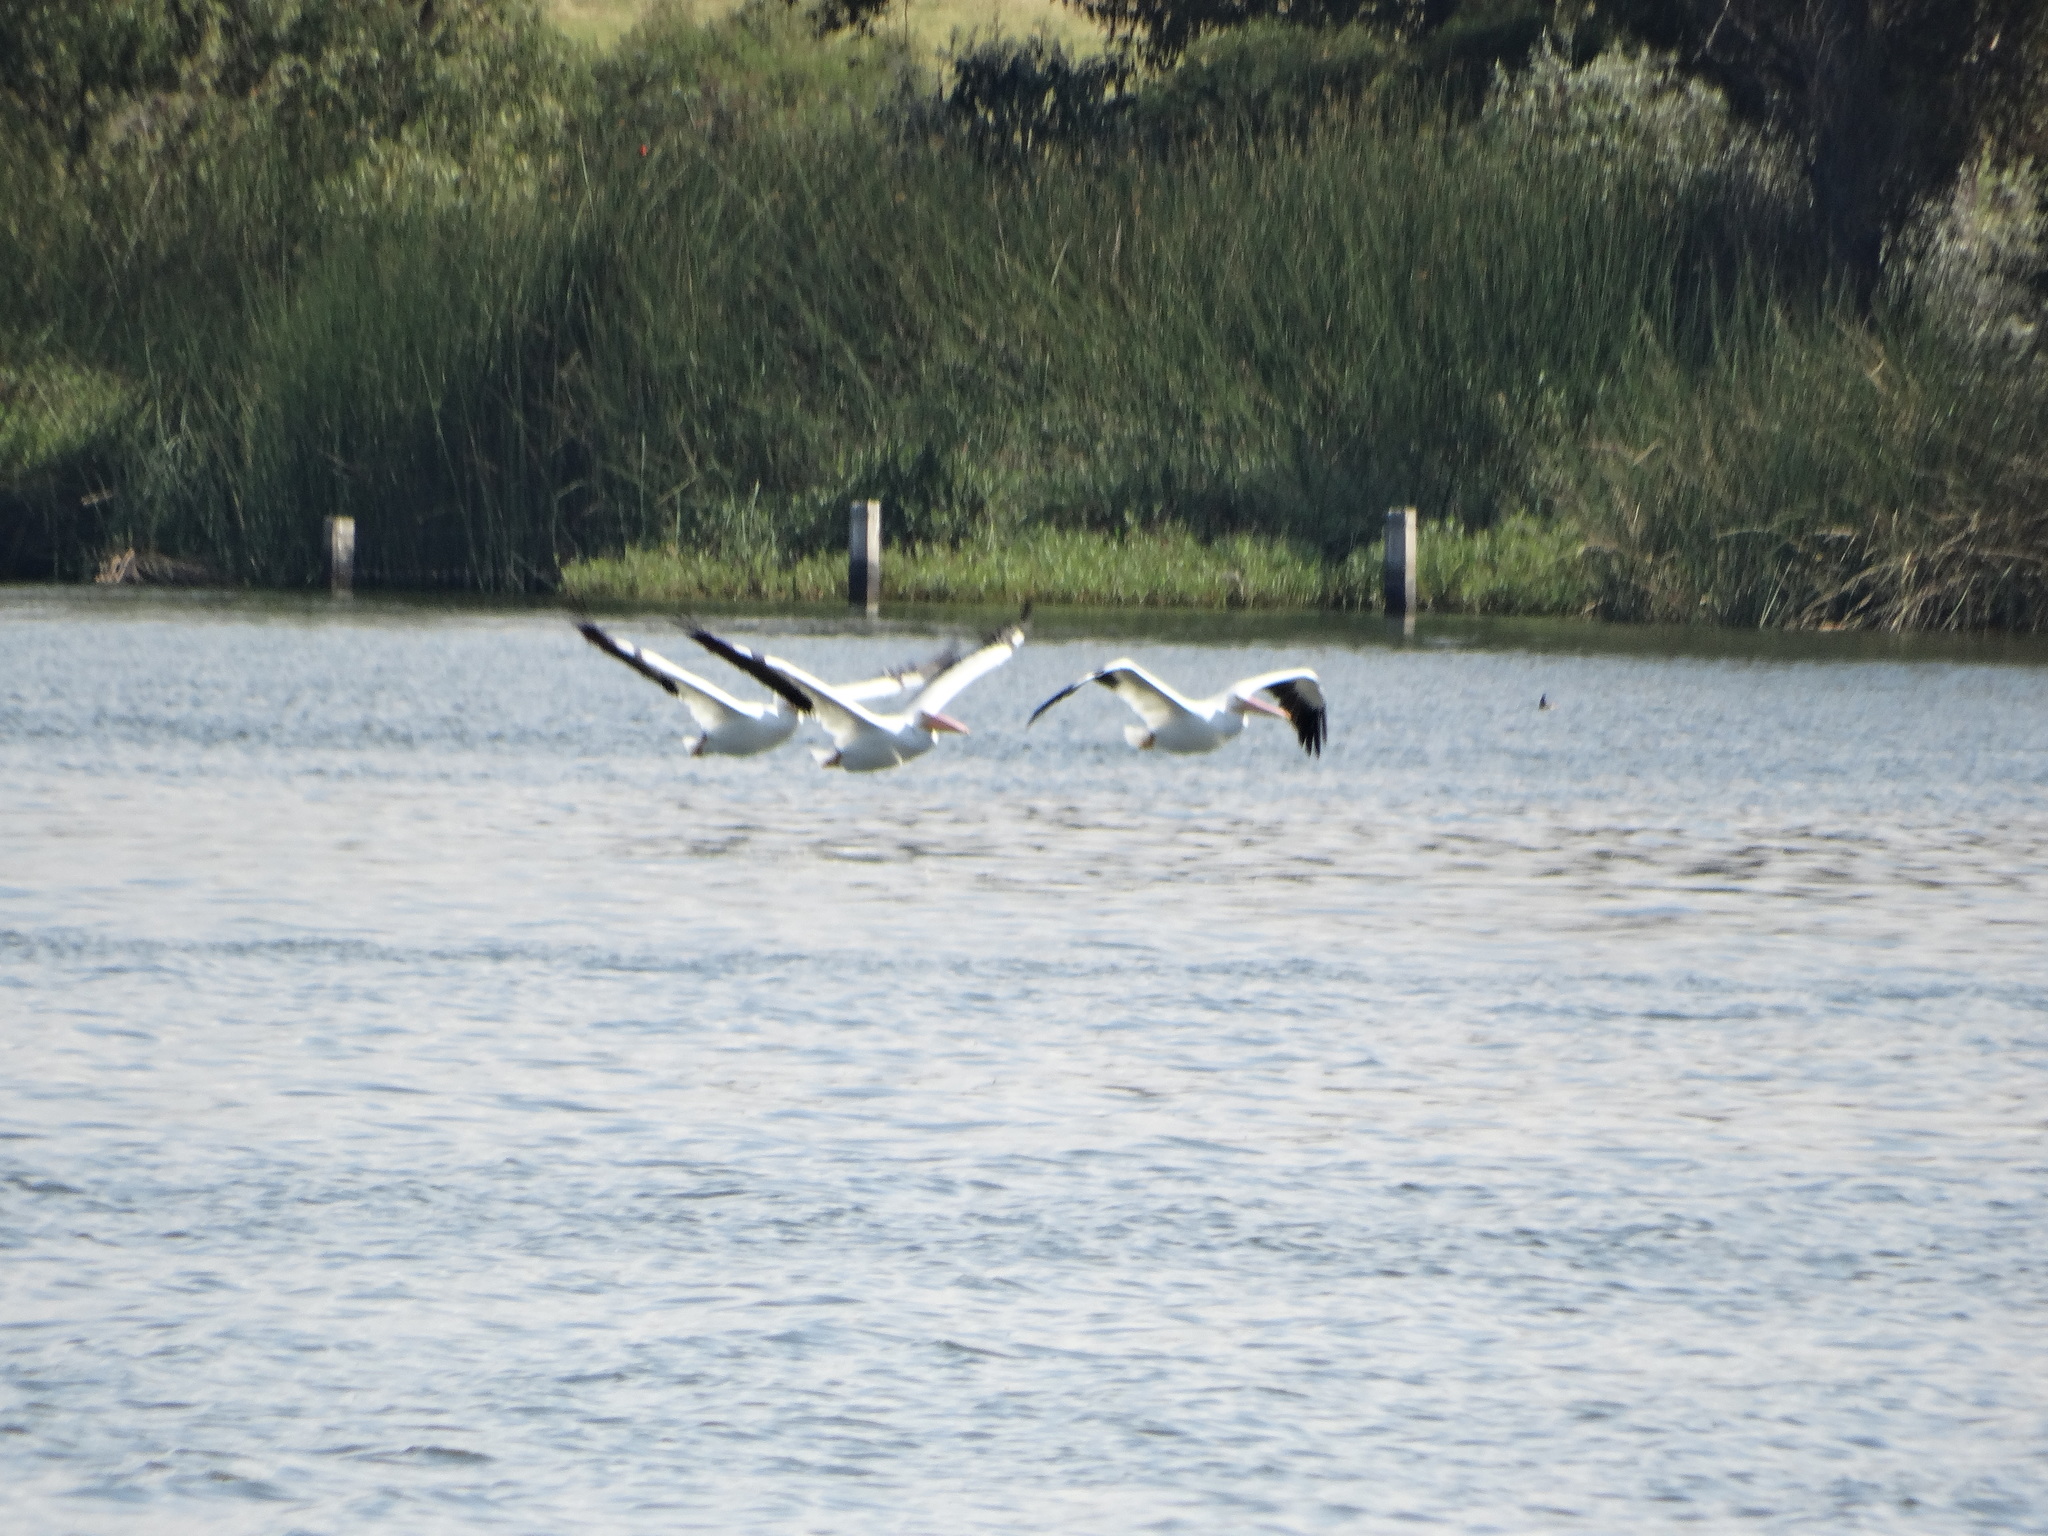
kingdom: Animalia
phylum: Chordata
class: Aves
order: Pelecaniformes
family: Pelecanidae
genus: Pelecanus
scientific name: Pelecanus erythrorhynchos
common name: American white pelican
